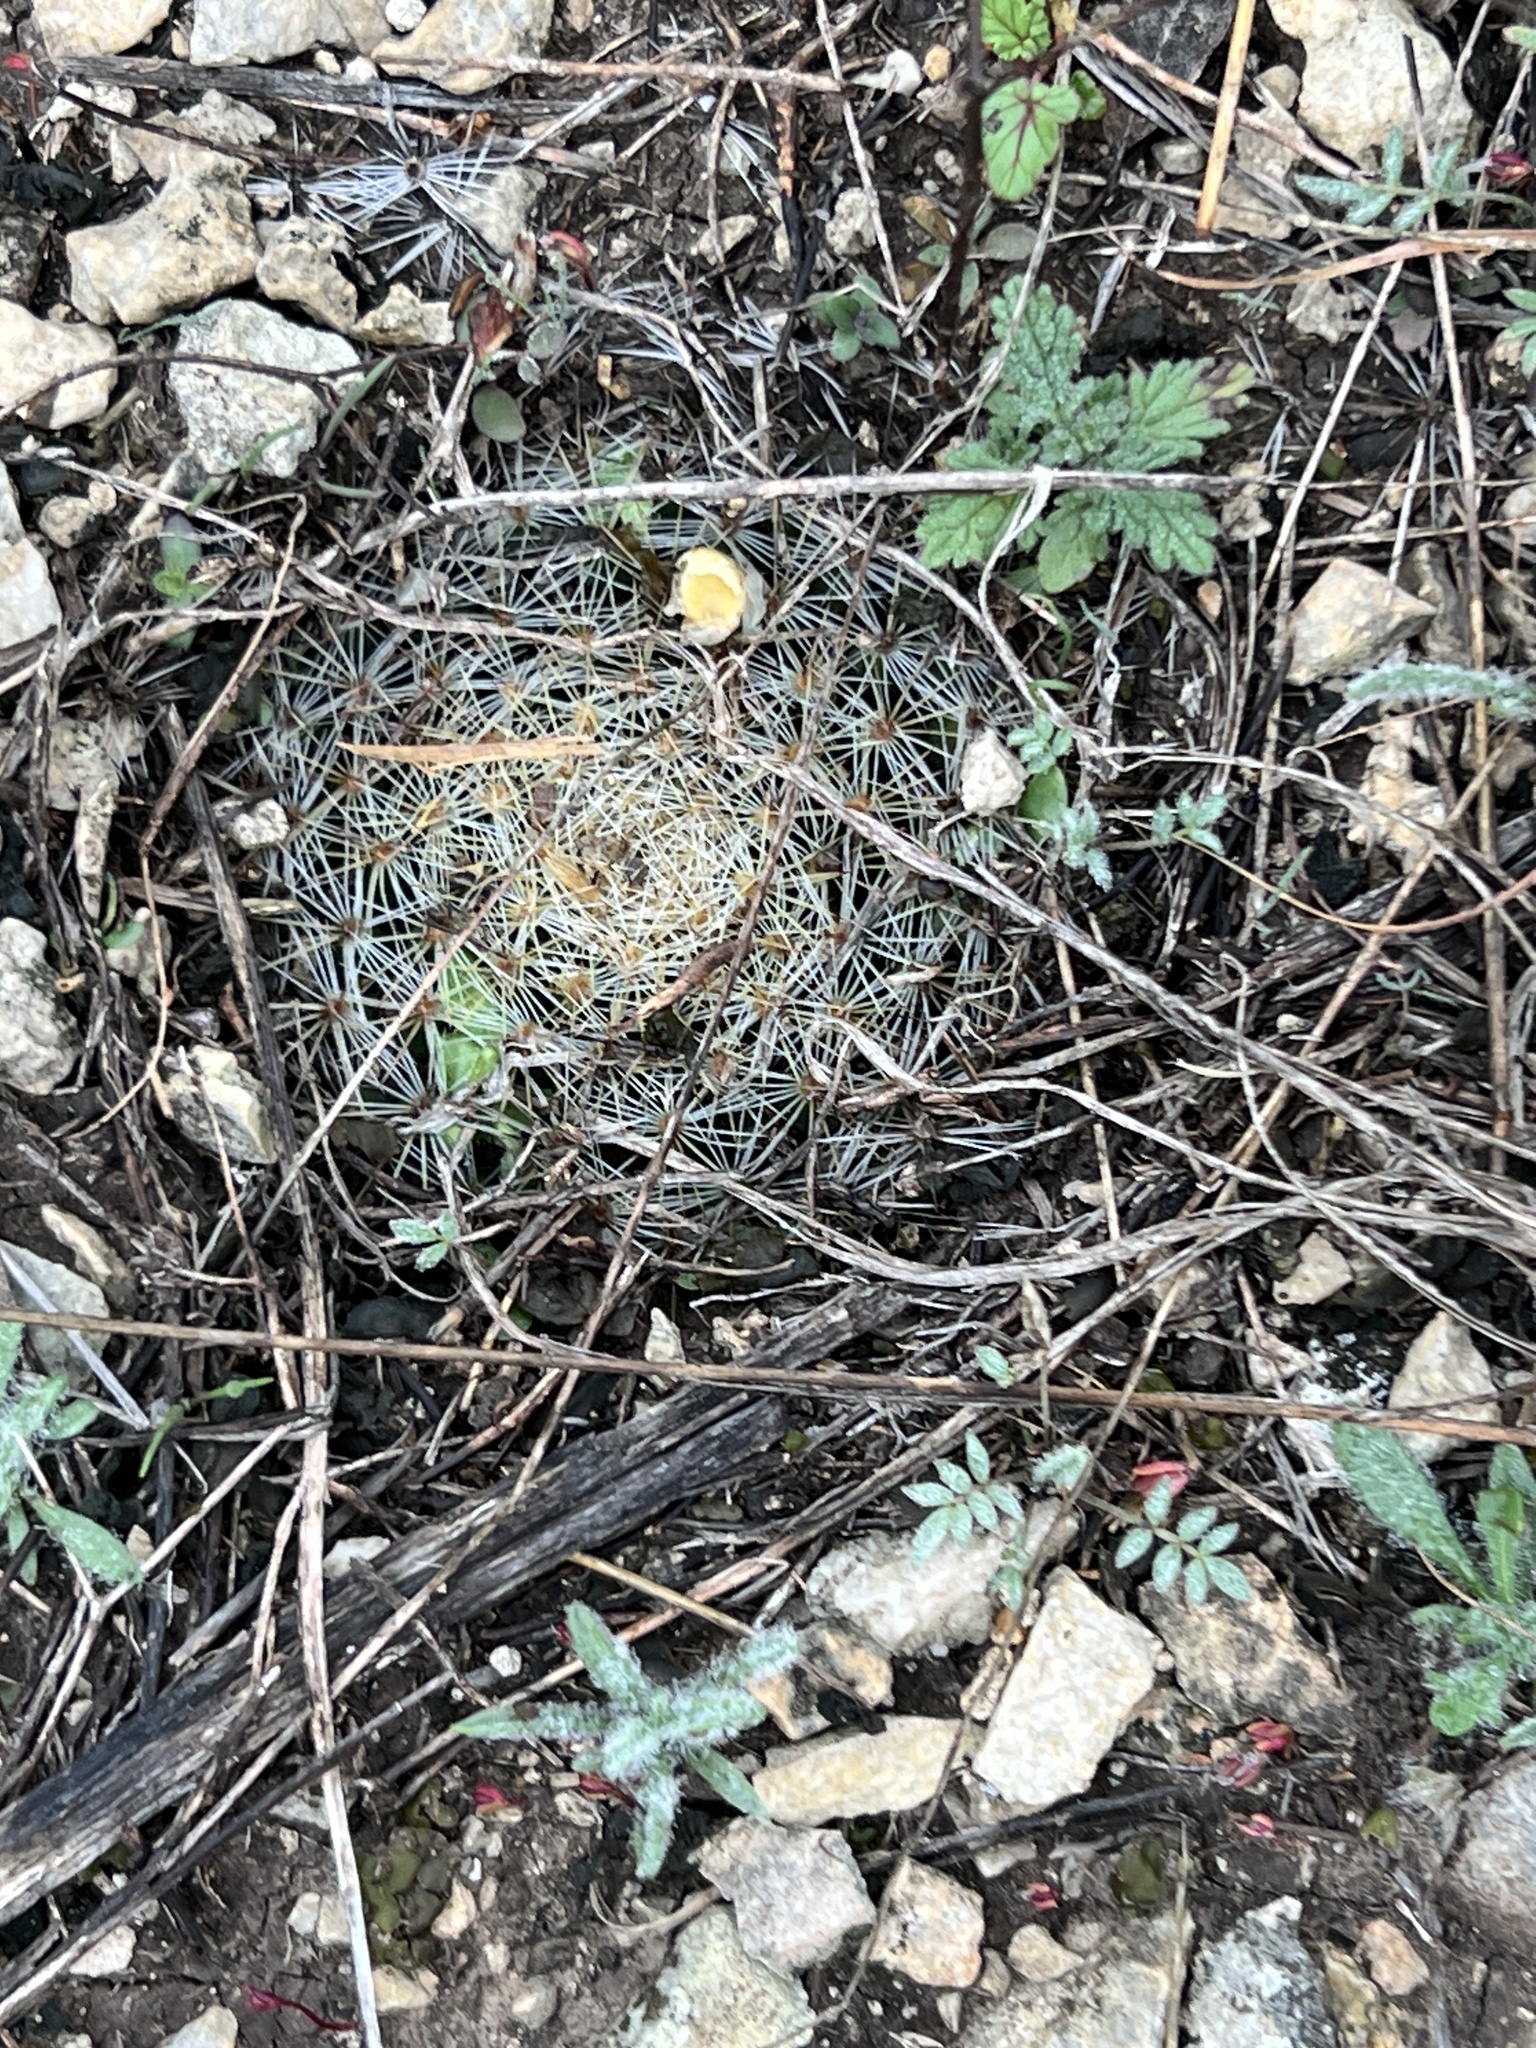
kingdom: Plantae
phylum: Tracheophyta
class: Magnoliopsida
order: Caryophyllales
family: Cactaceae
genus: Mammillaria
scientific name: Mammillaria heyderi
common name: Little nipple cactus
